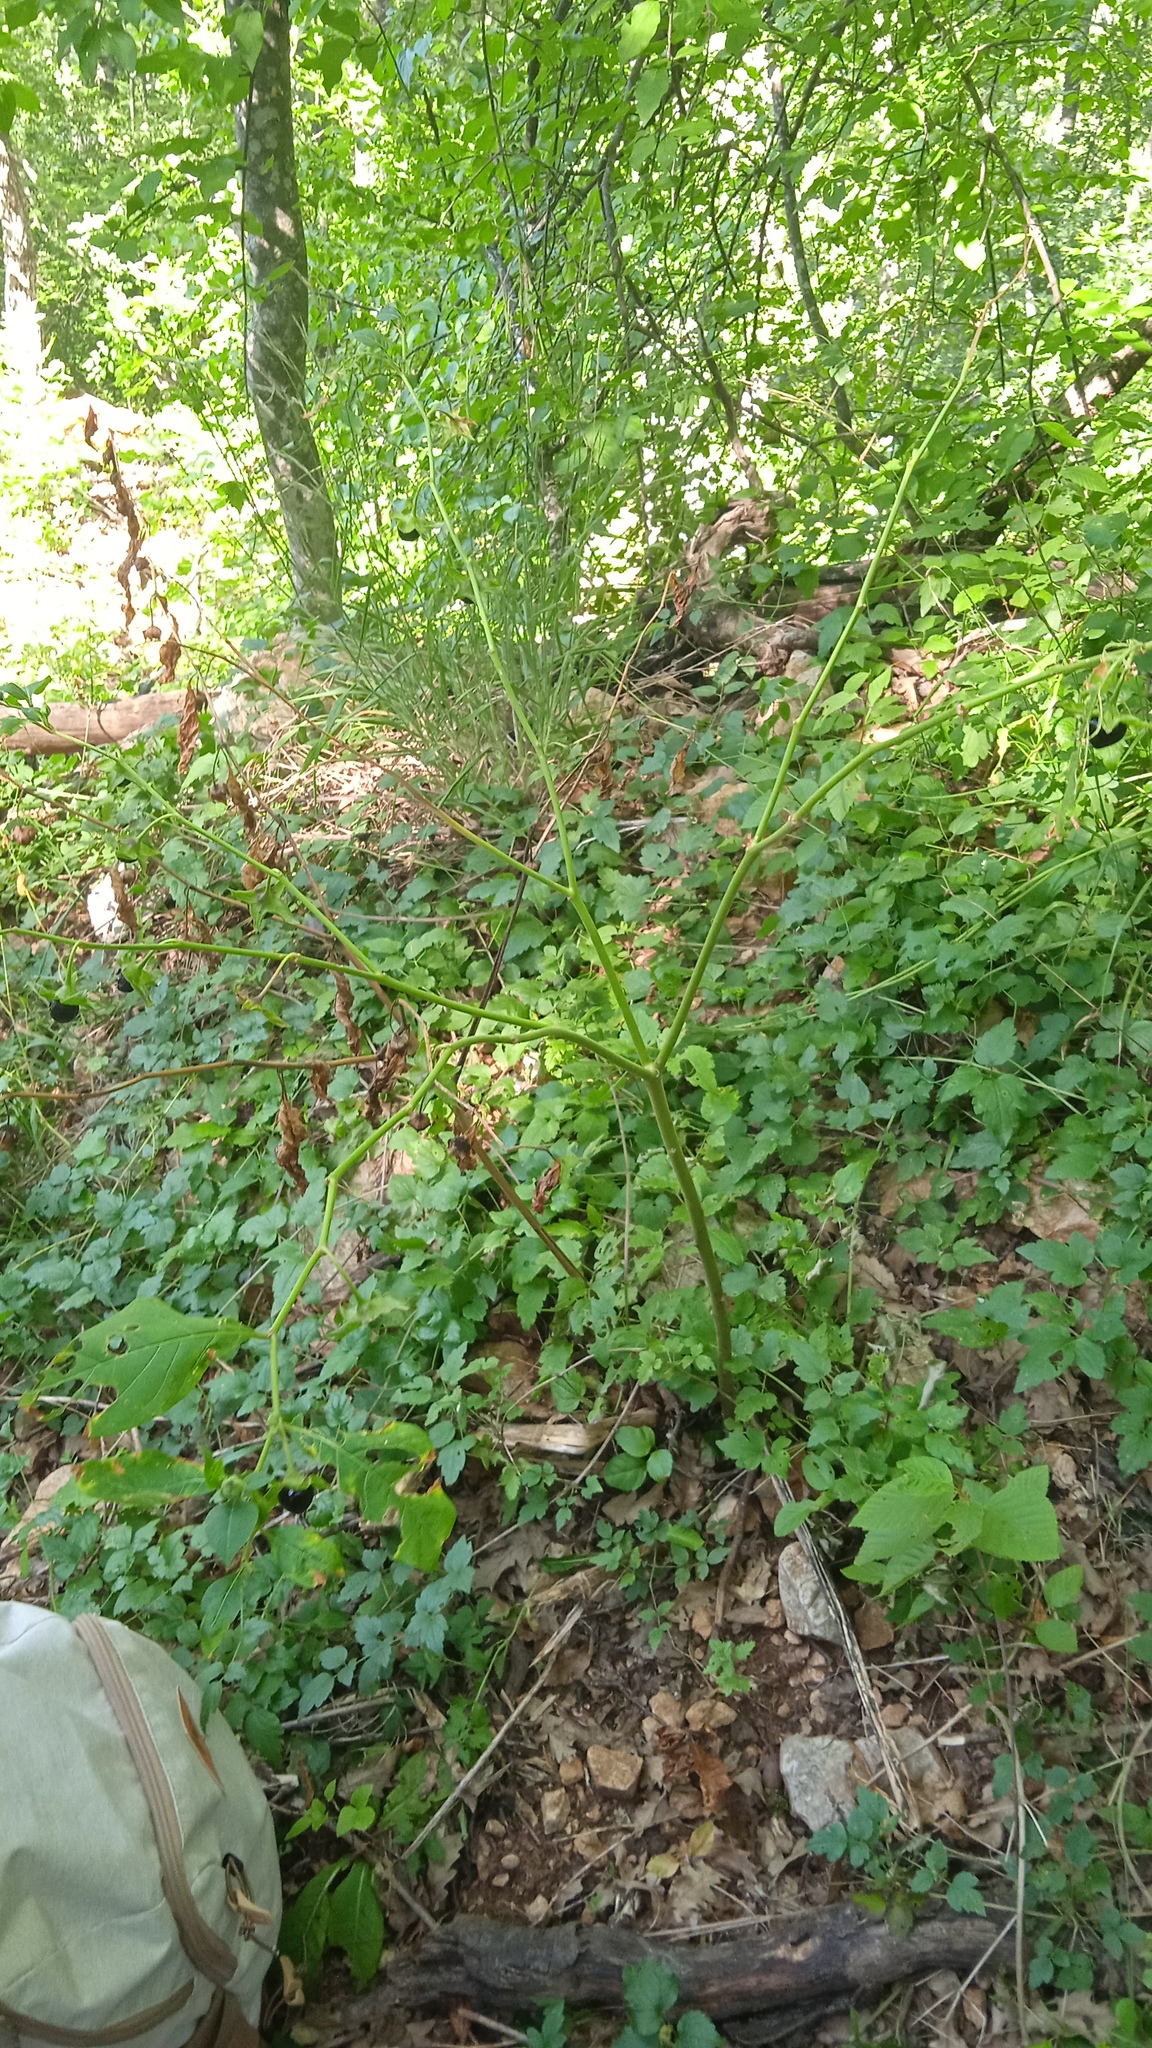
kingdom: Plantae
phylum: Tracheophyta
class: Magnoliopsida
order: Solanales
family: Solanaceae
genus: Atropa
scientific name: Atropa belladonna
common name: Deadly nightshade
